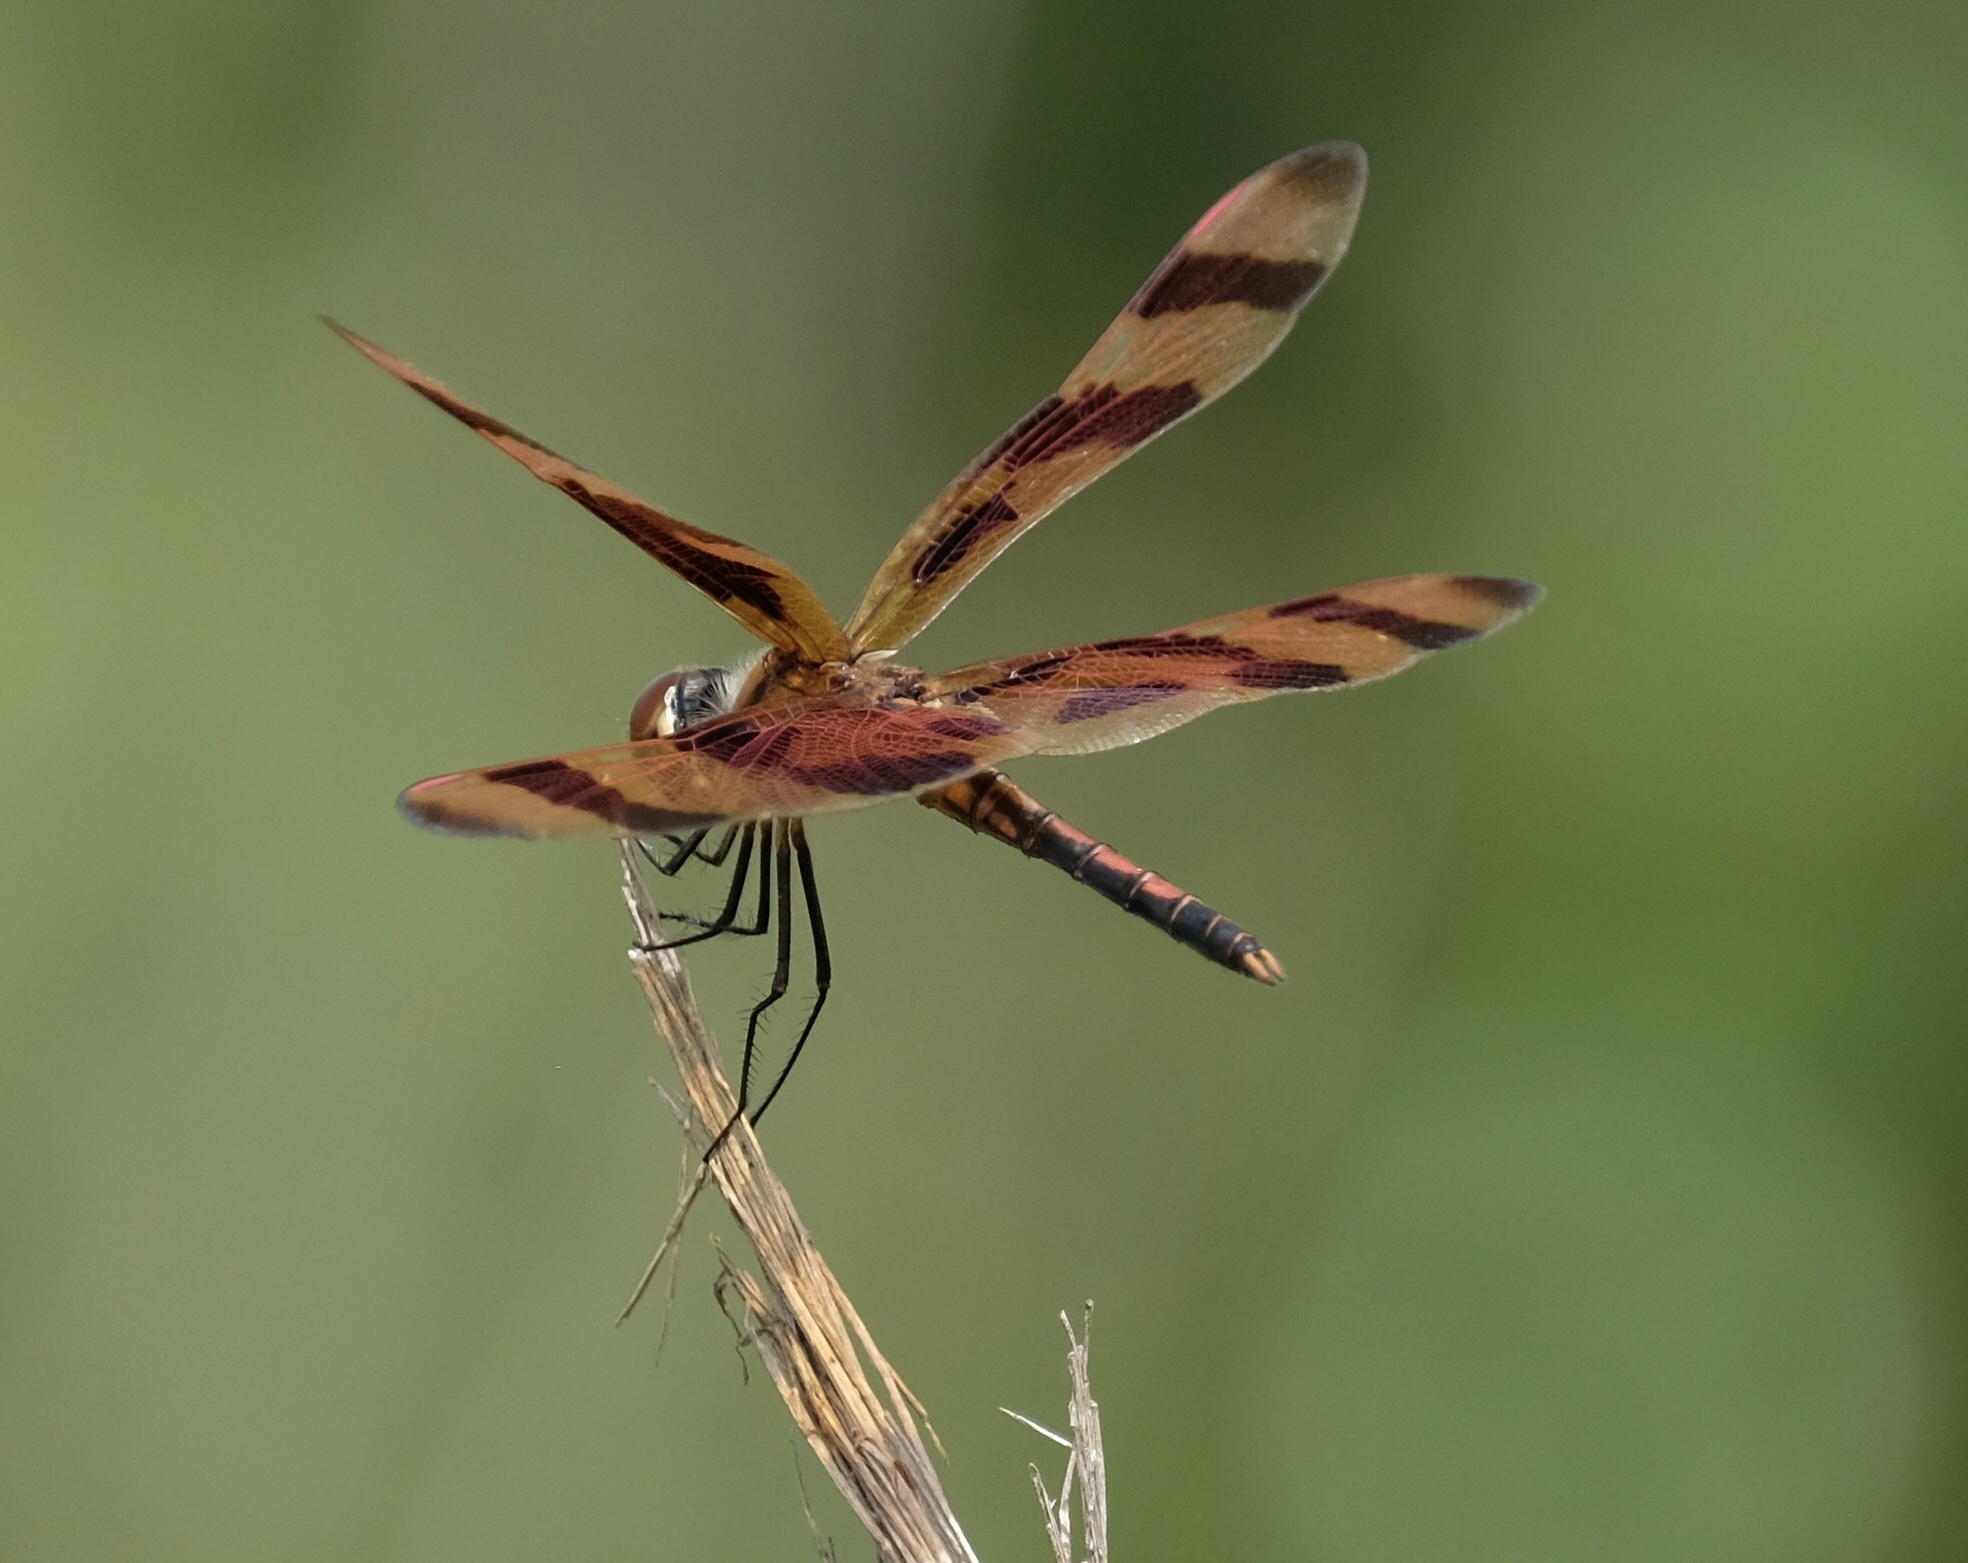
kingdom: Animalia
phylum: Arthropoda
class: Insecta
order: Odonata
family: Libellulidae
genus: Celithemis
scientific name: Celithemis eponina
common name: Halloween pennant
